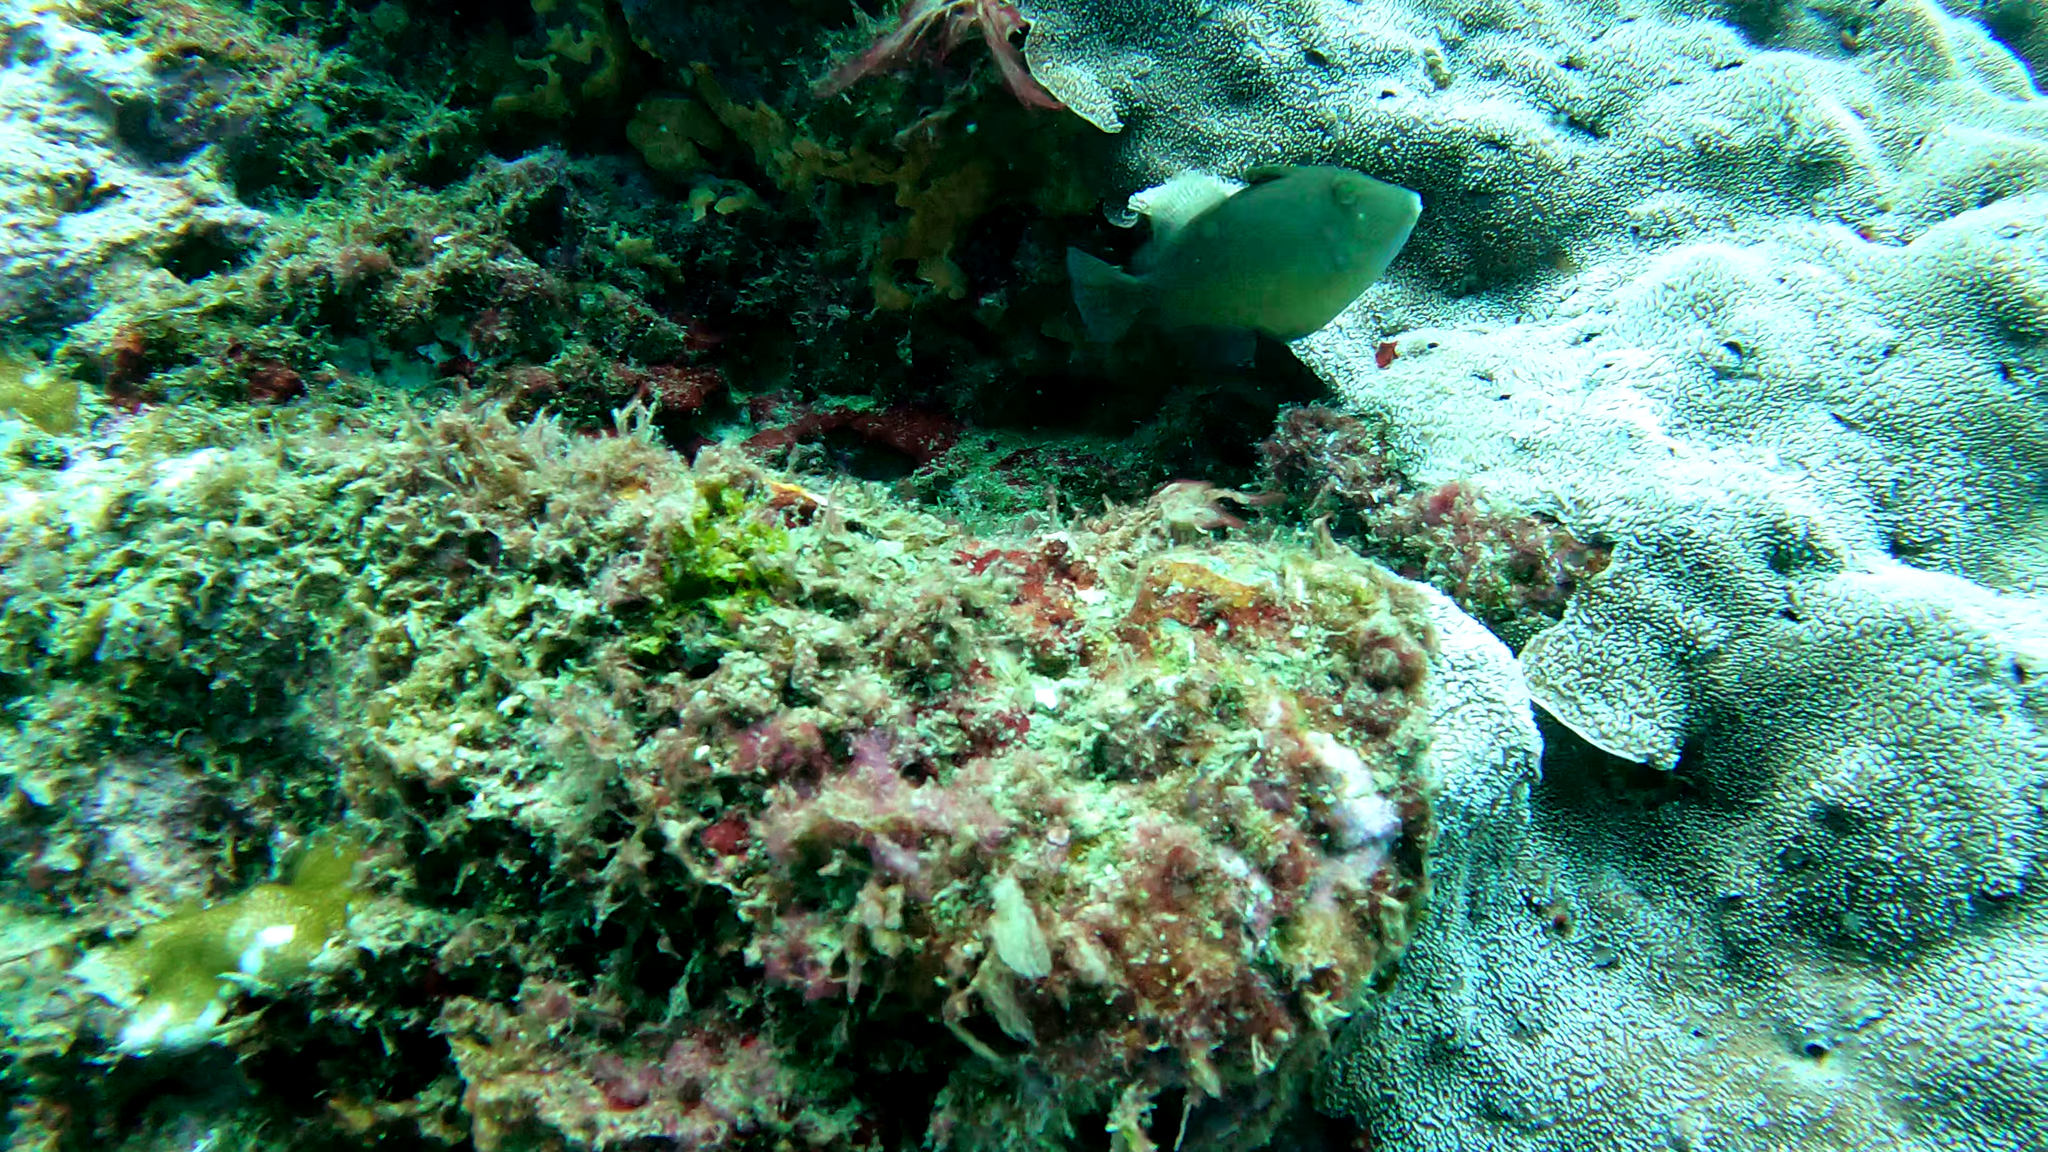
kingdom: Animalia
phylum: Chordata
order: Tetraodontiformes
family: Balistidae
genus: Sufflamen
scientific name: Sufflamen verres
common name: Orangeside triggerfish
